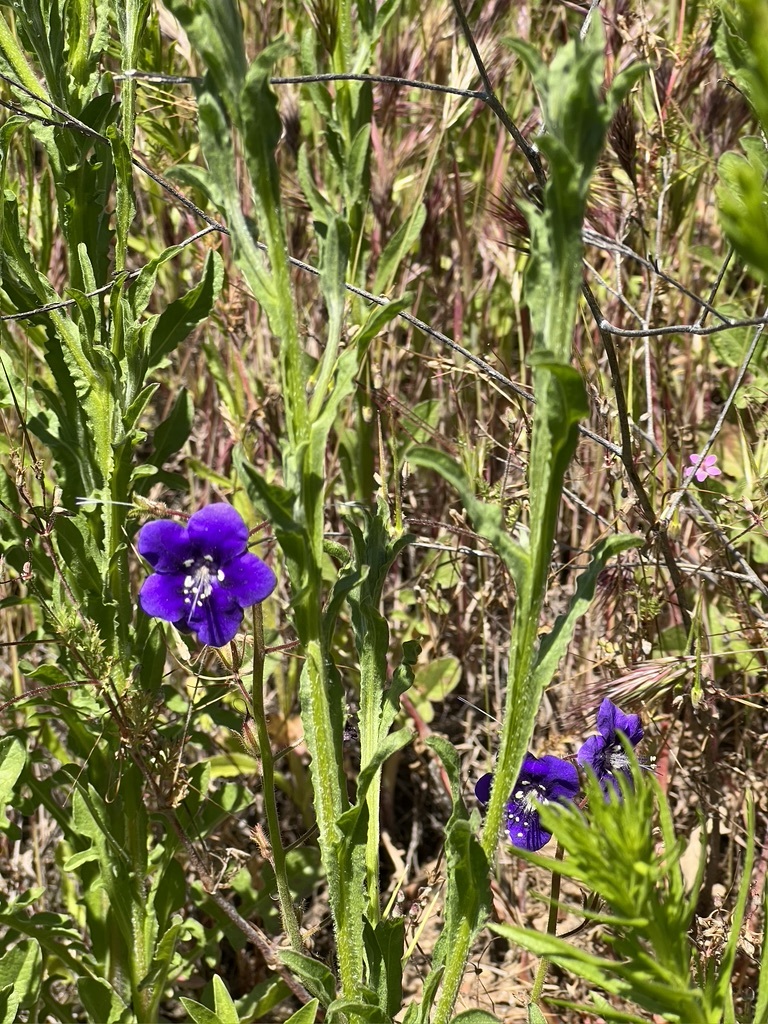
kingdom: Plantae
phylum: Tracheophyta
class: Magnoliopsida
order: Boraginales
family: Hydrophyllaceae
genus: Phacelia
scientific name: Phacelia parryi
